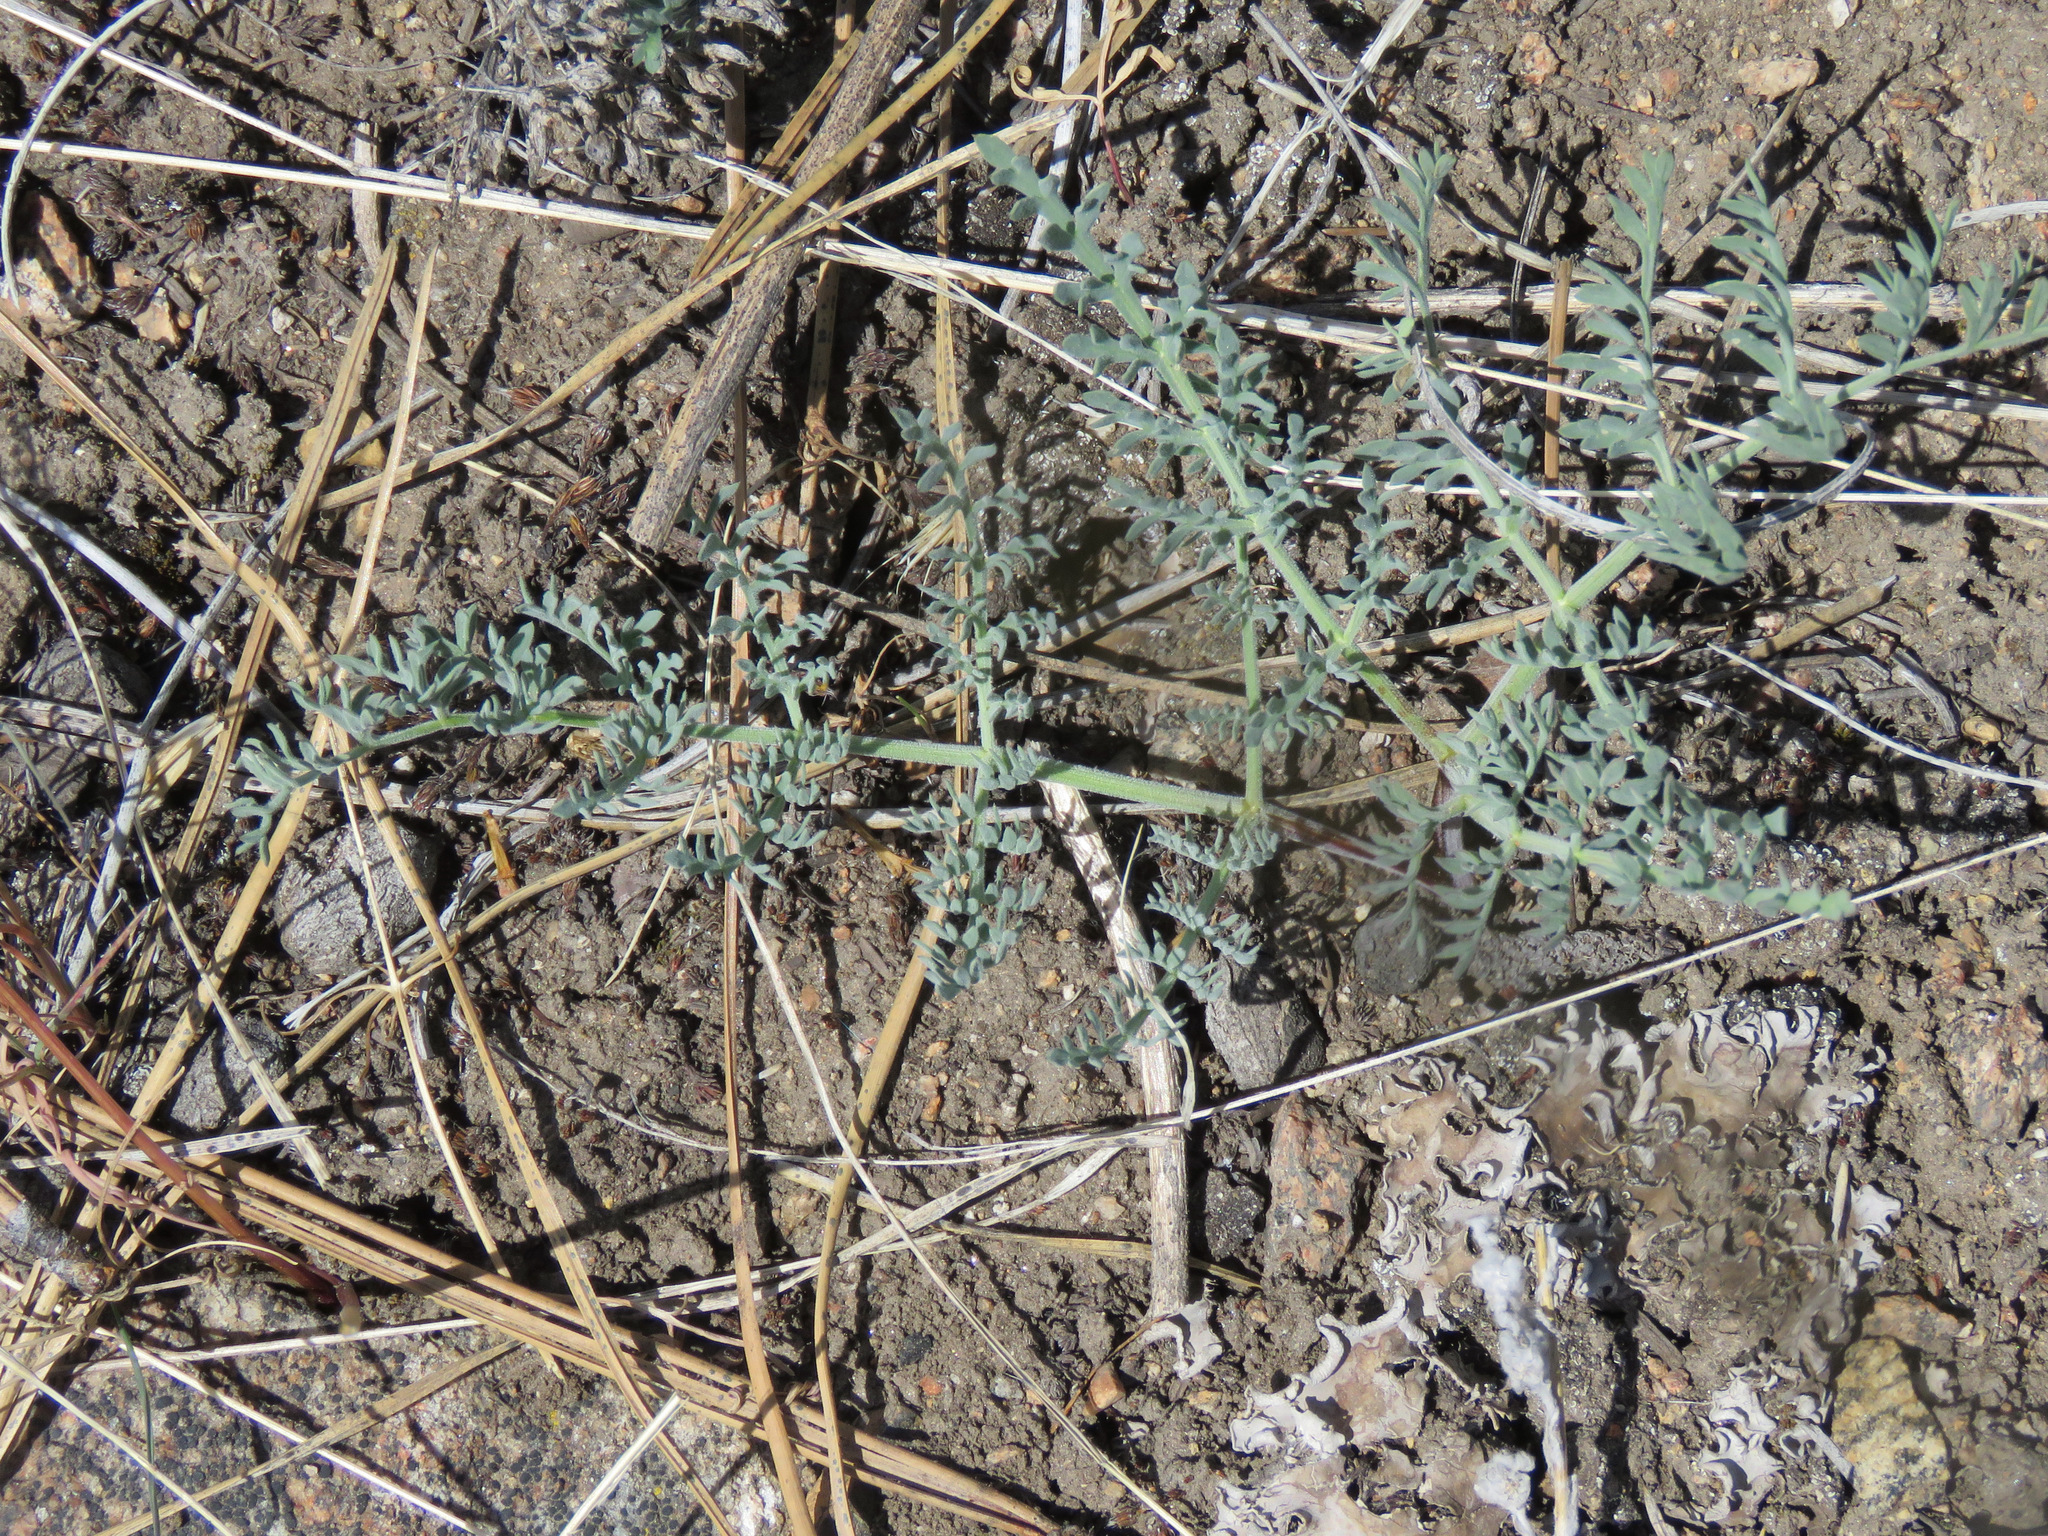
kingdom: Plantae
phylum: Tracheophyta
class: Magnoliopsida
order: Apiales
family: Apiaceae
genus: Lomatium
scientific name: Lomatium macrocarpum
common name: Big-seed biscuitroot
